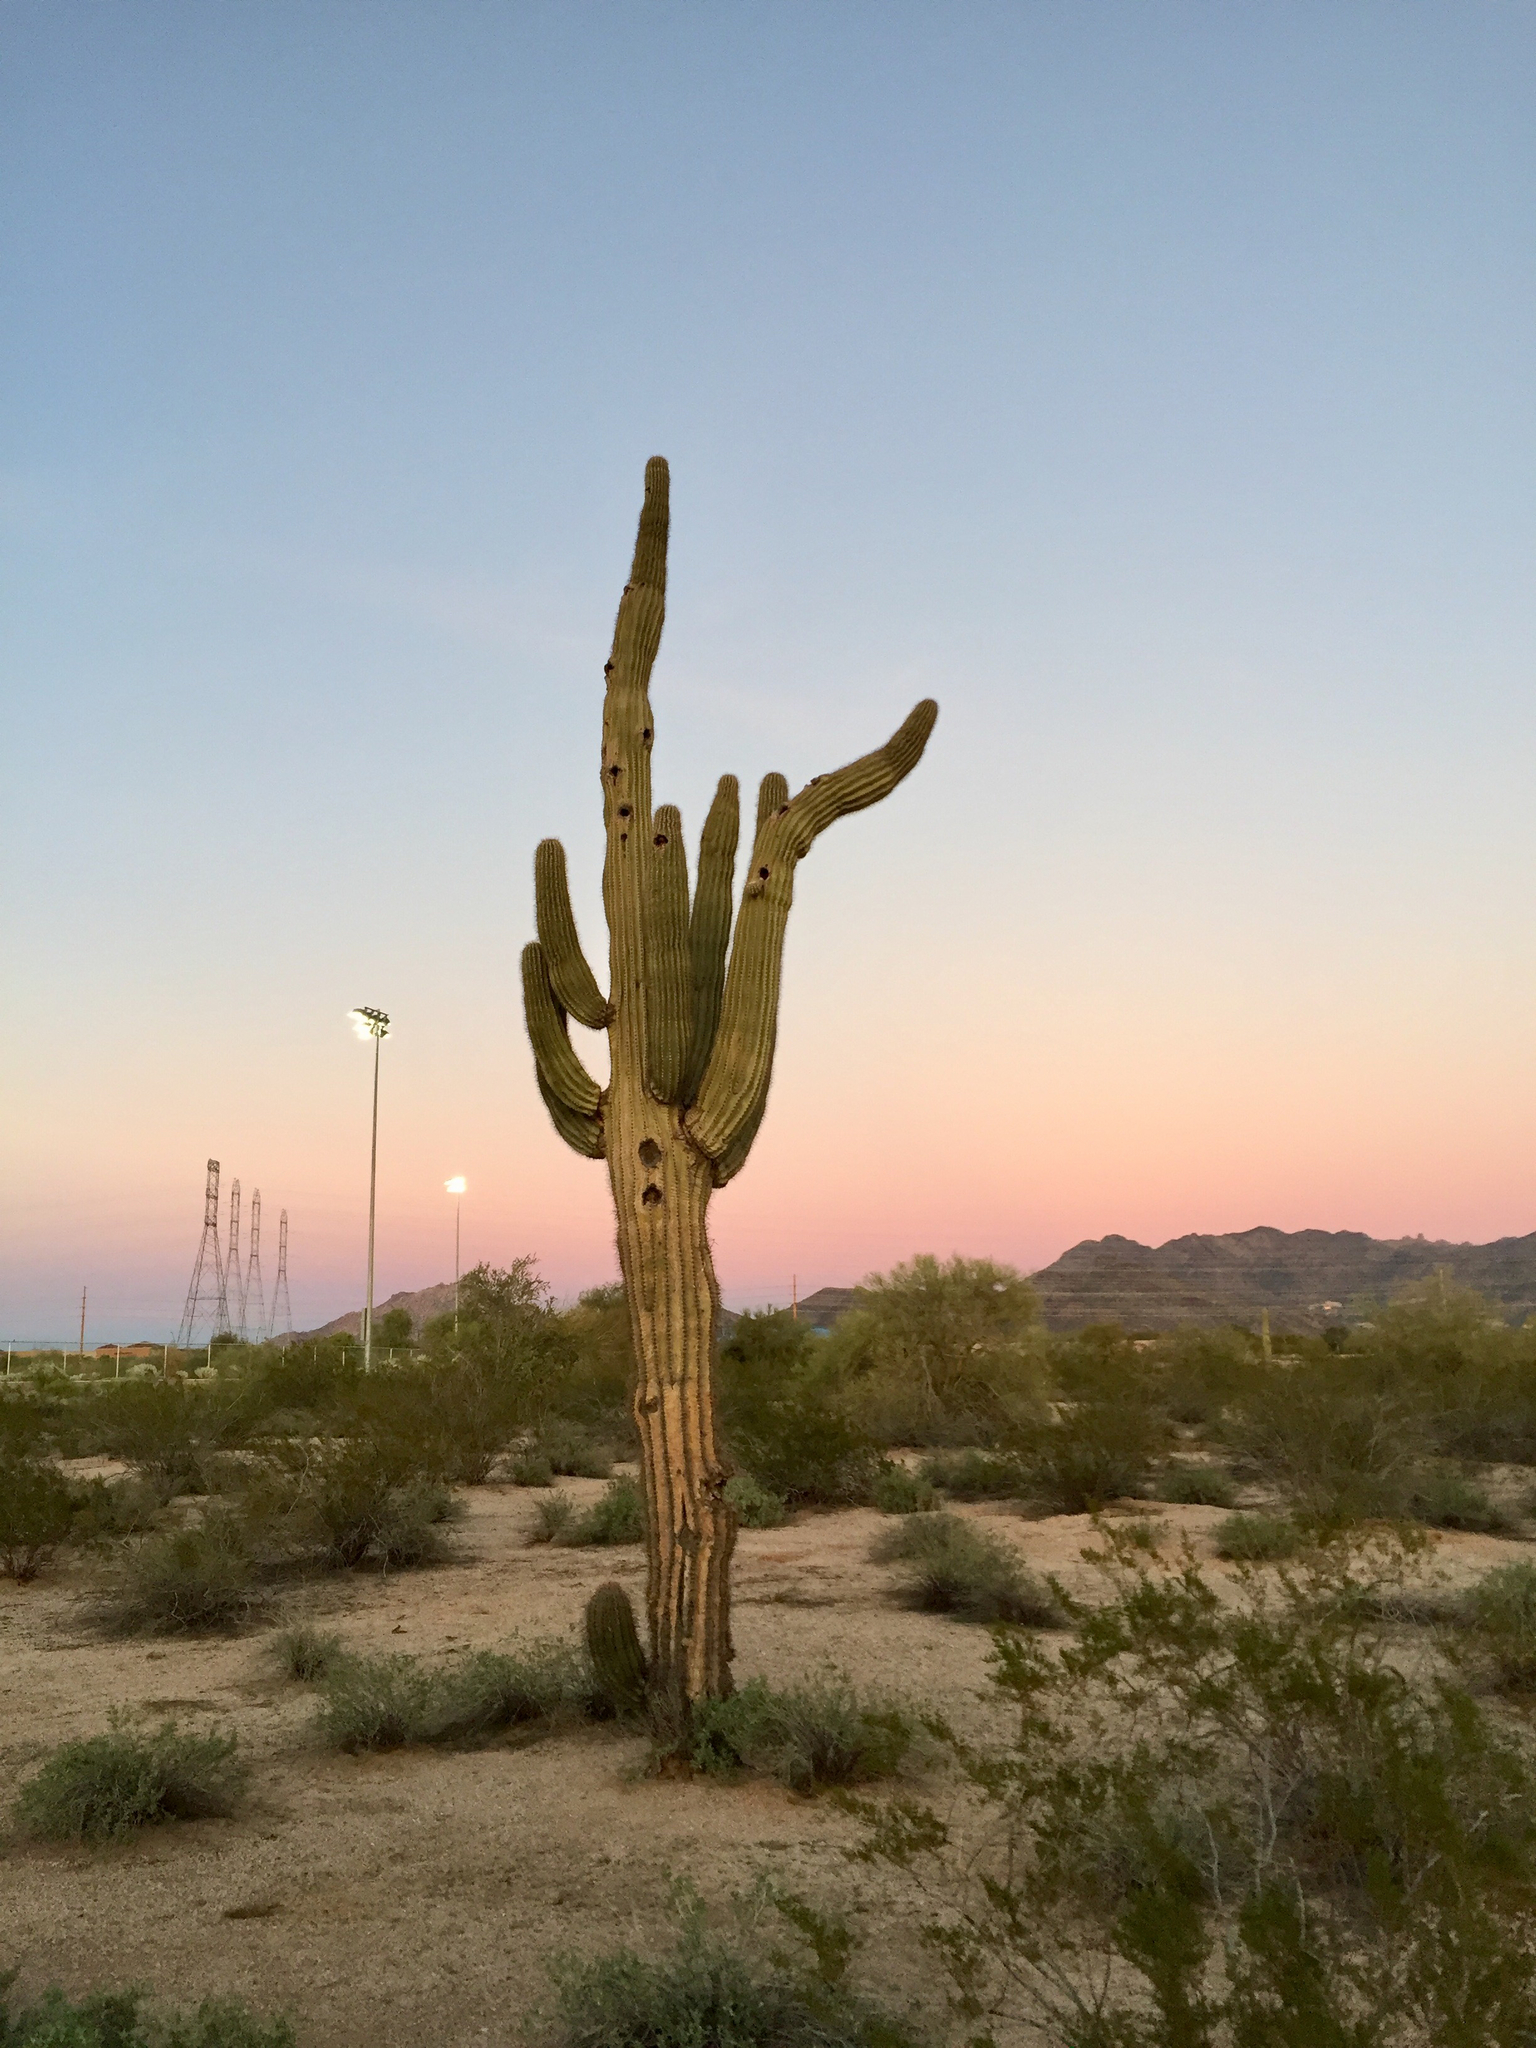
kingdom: Plantae
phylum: Tracheophyta
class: Magnoliopsida
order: Caryophyllales
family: Cactaceae
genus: Carnegiea
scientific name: Carnegiea gigantea
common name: Saguaro
